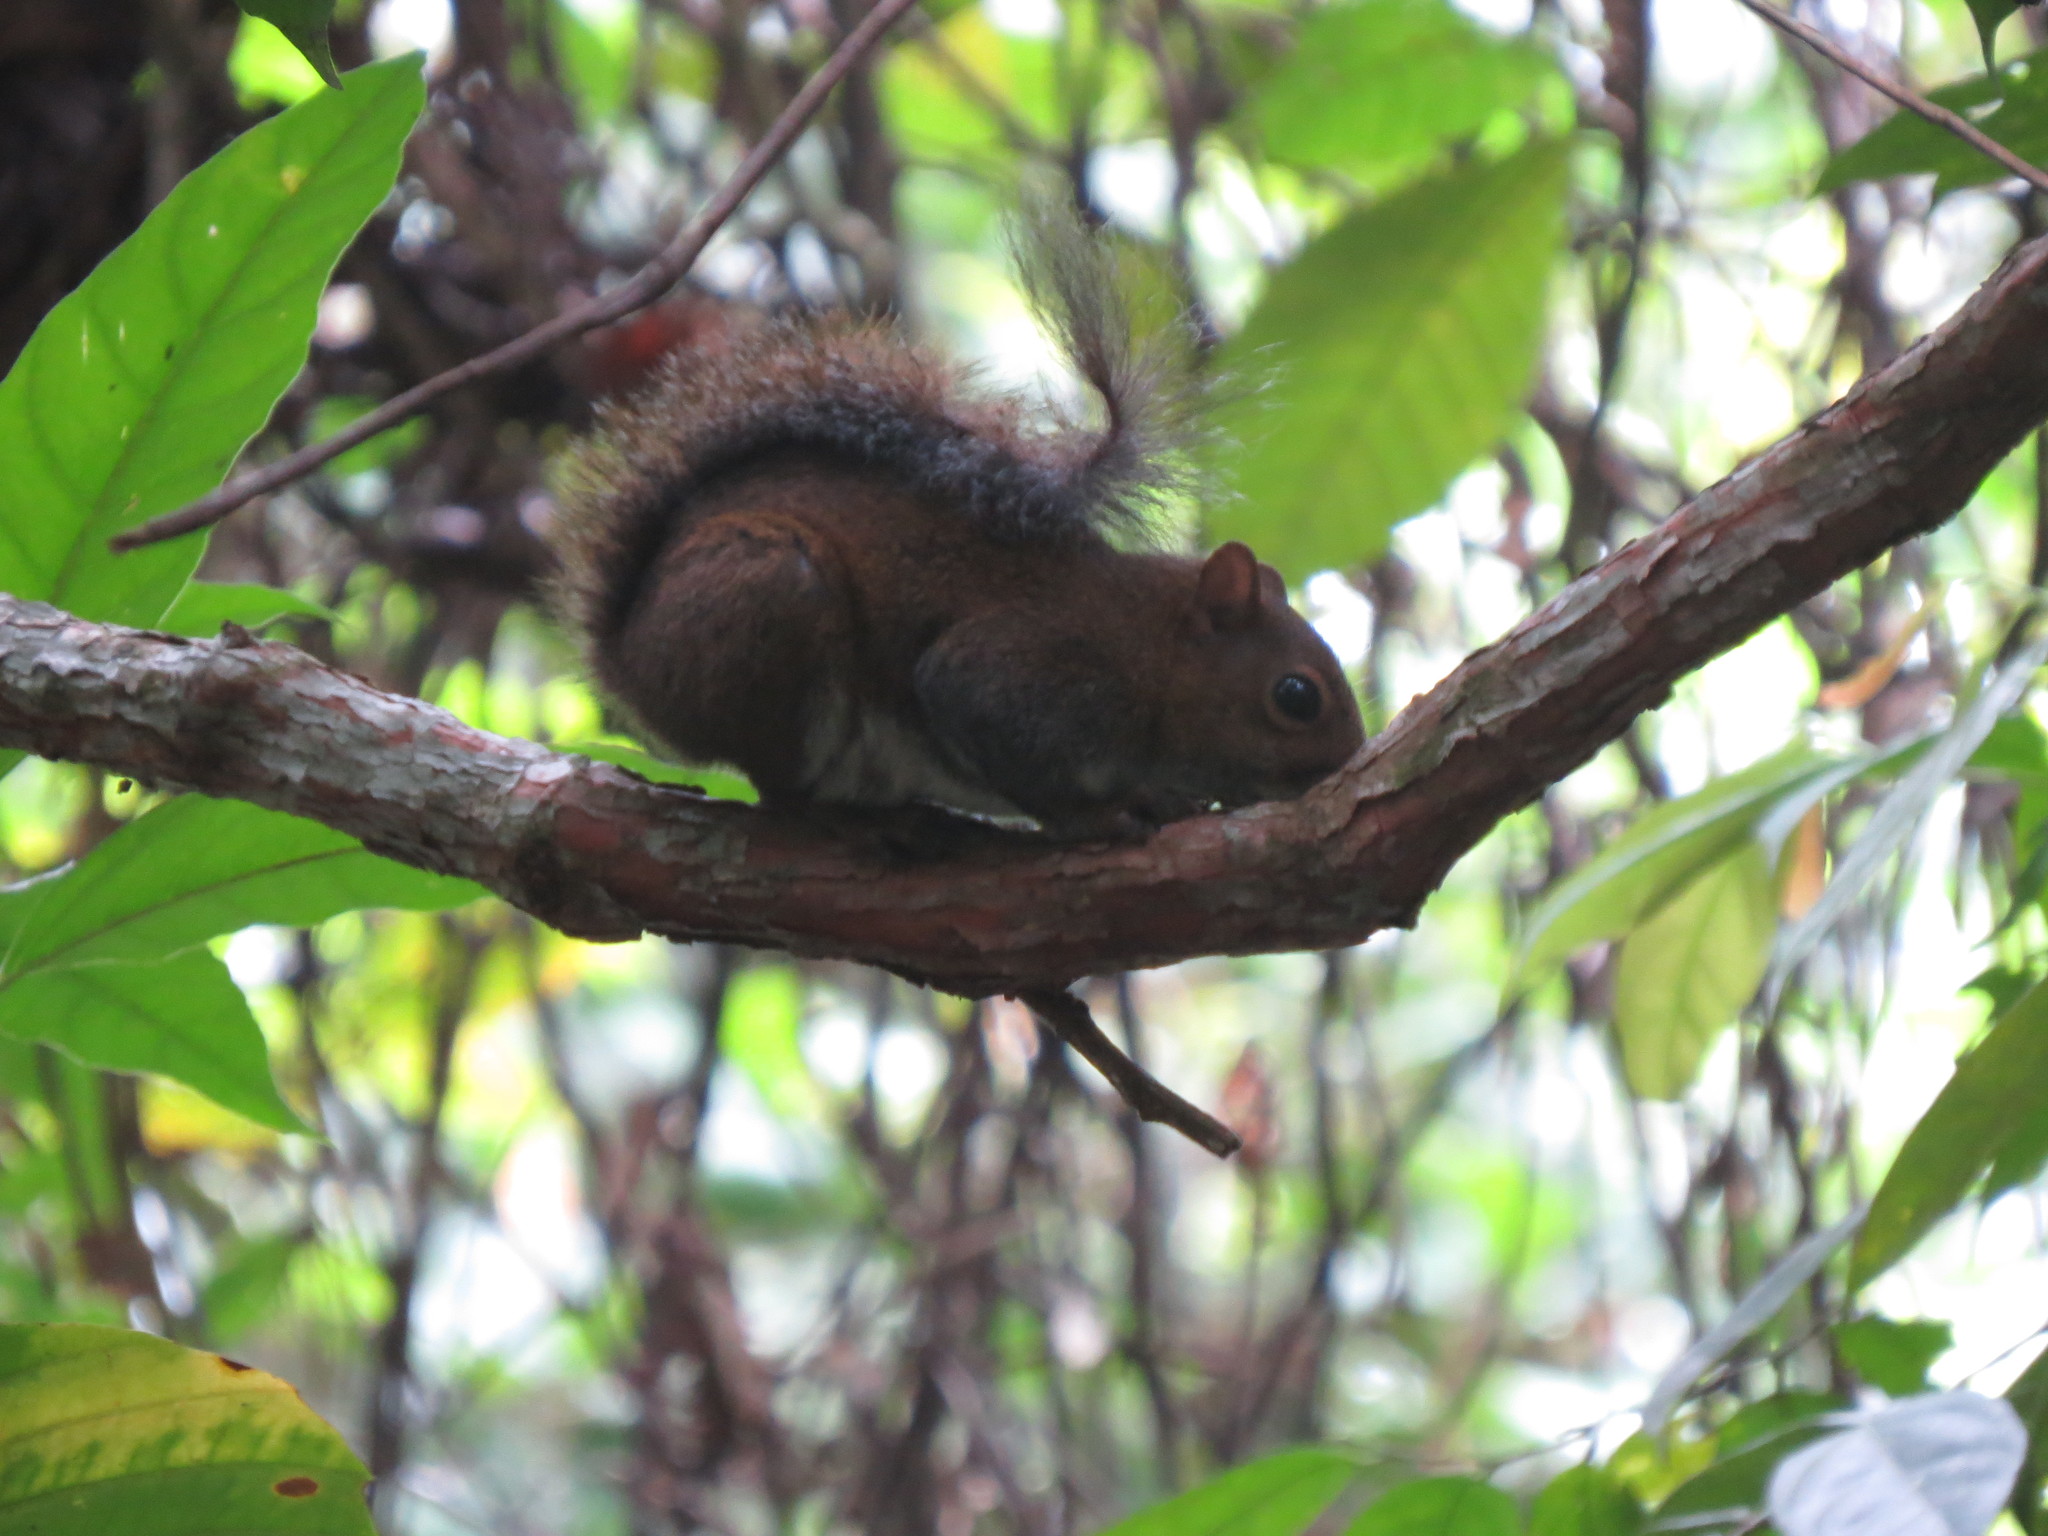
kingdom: Animalia
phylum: Chordata
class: Mammalia
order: Rodentia
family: Sciuridae
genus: Sciurus
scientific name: Sciurus deppei
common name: Deppe's squirrel
